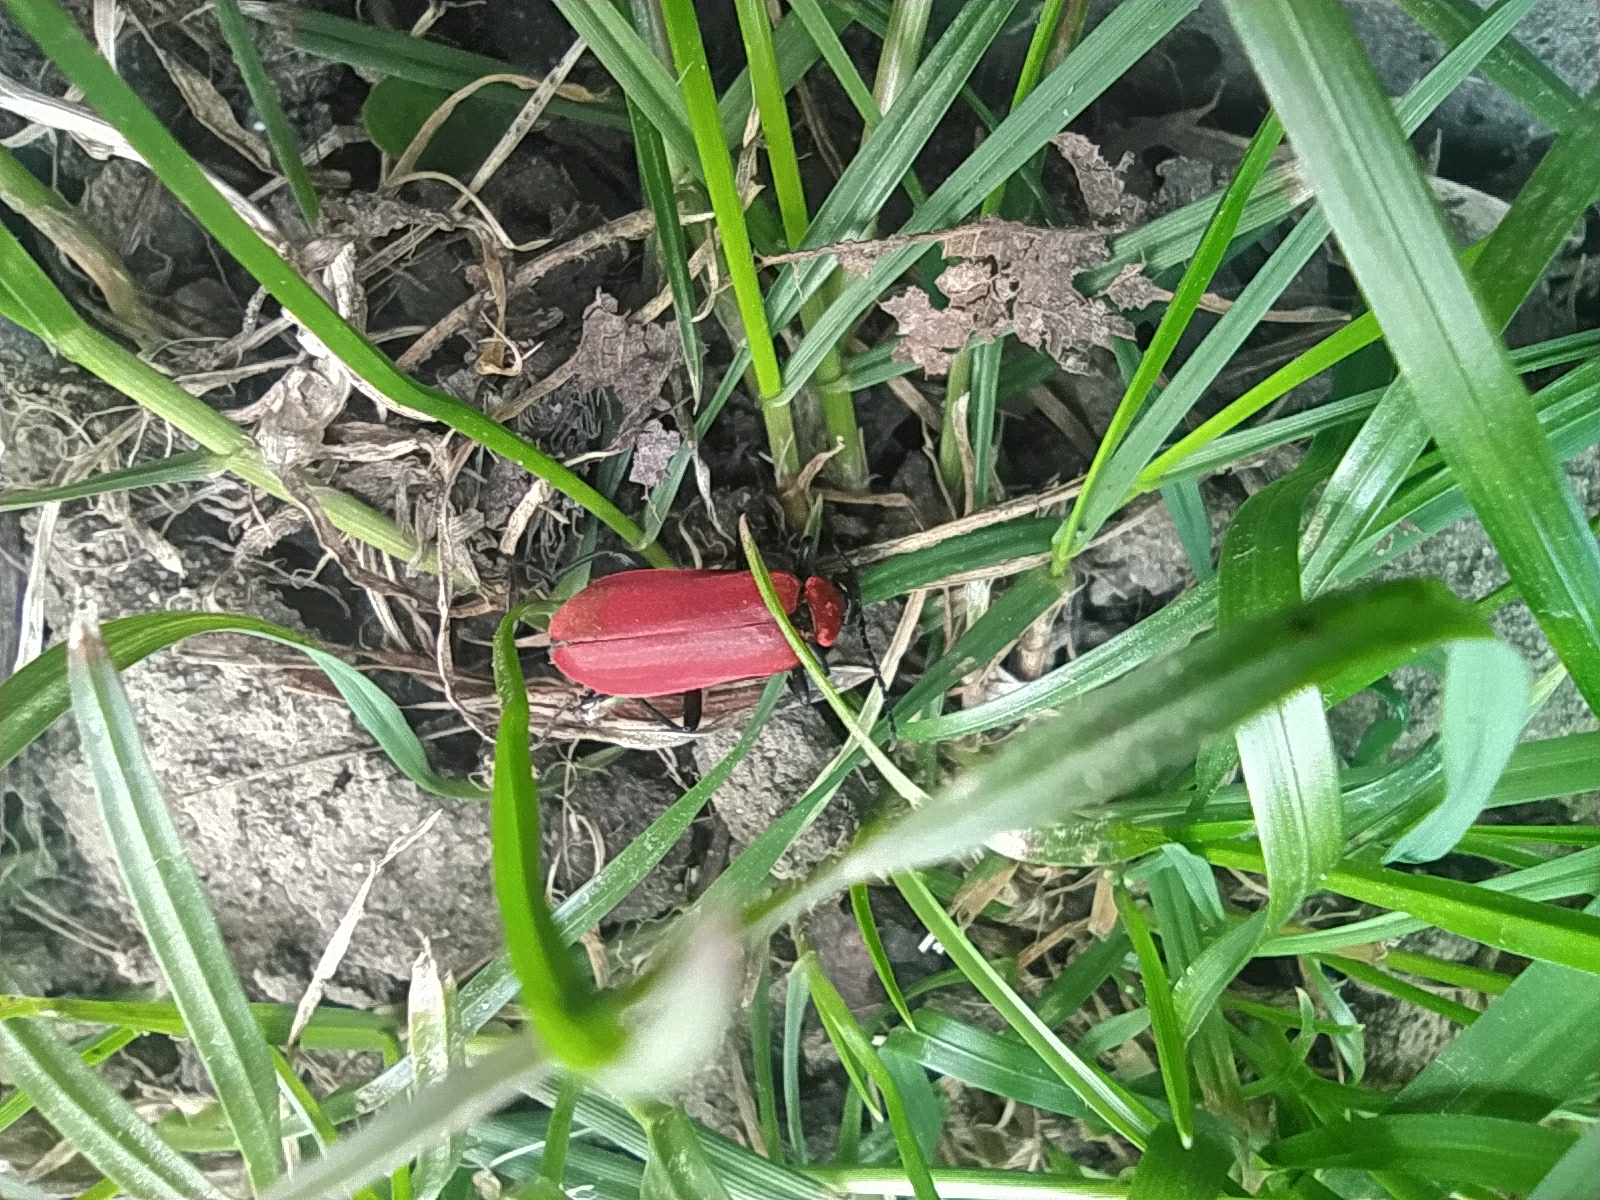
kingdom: Animalia
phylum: Arthropoda
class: Insecta
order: Coleoptera
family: Pyrochroidae
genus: Pyrochroa
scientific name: Pyrochroa coccinea
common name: Black-headed cardinal beetle
